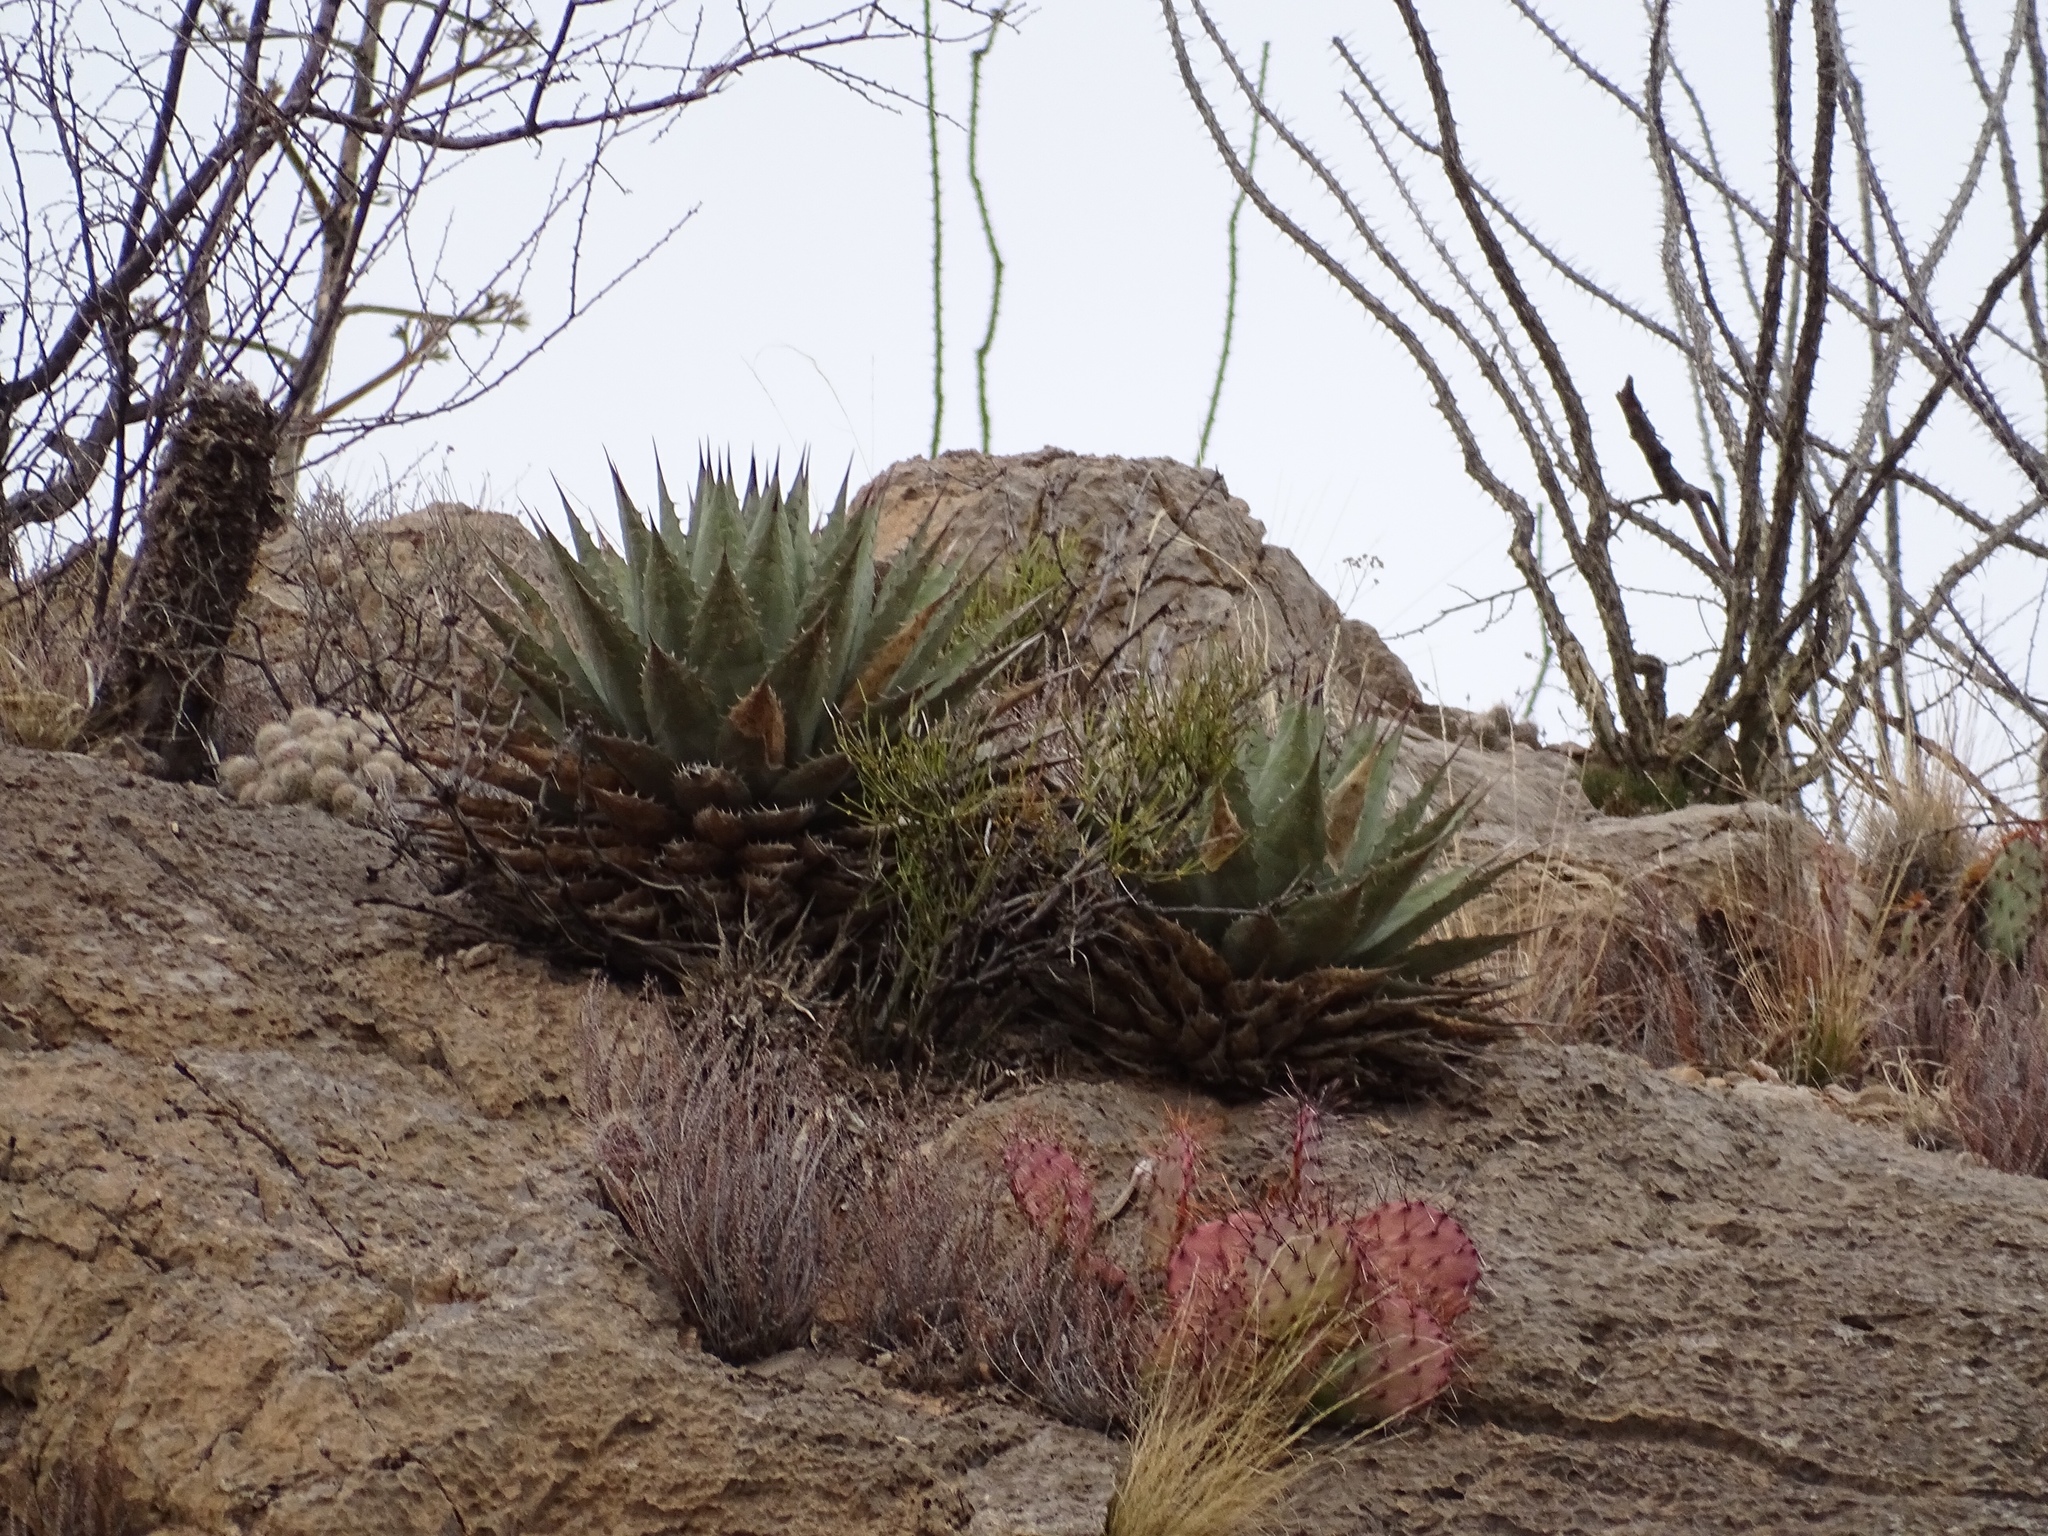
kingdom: Plantae
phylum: Tracheophyta
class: Liliopsida
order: Asparagales
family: Asparagaceae
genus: Agave
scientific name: Agave parryi
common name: Parry's agave
